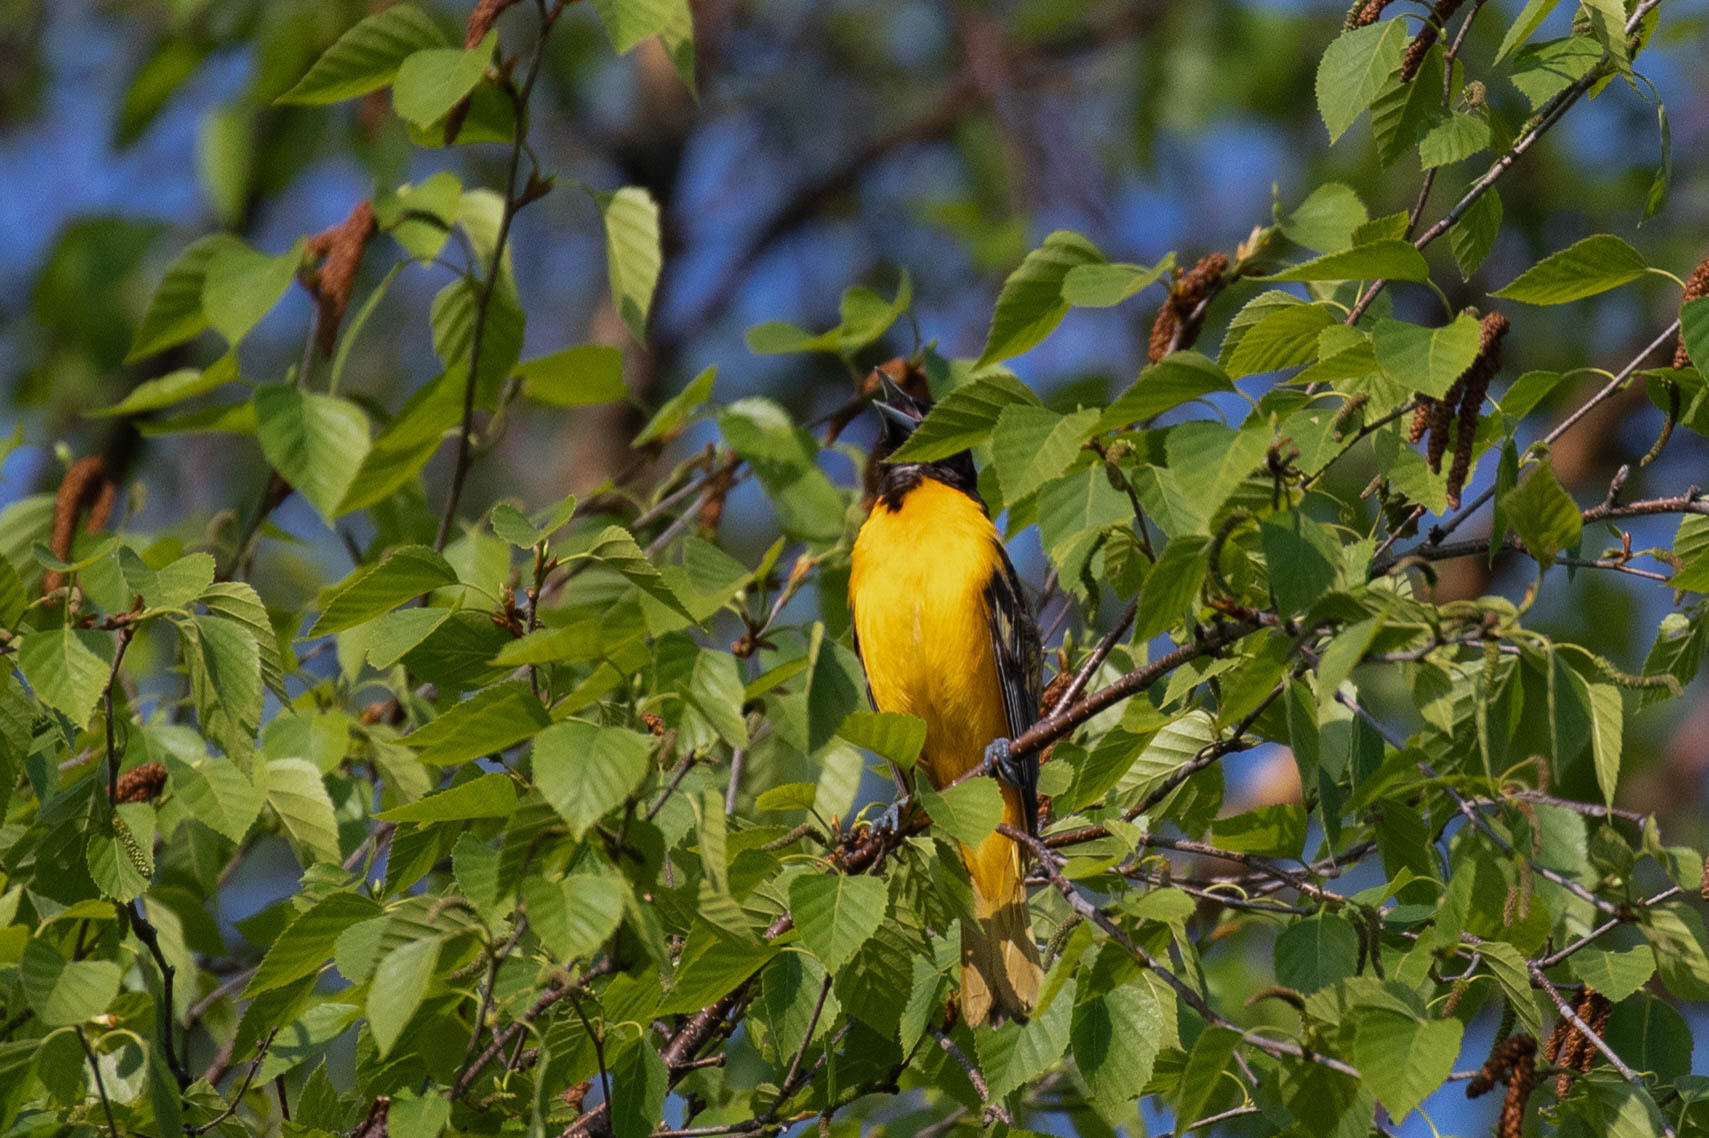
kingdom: Animalia
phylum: Chordata
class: Aves
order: Passeriformes
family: Icteridae
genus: Icterus
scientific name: Icterus galbula
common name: Baltimore oriole
